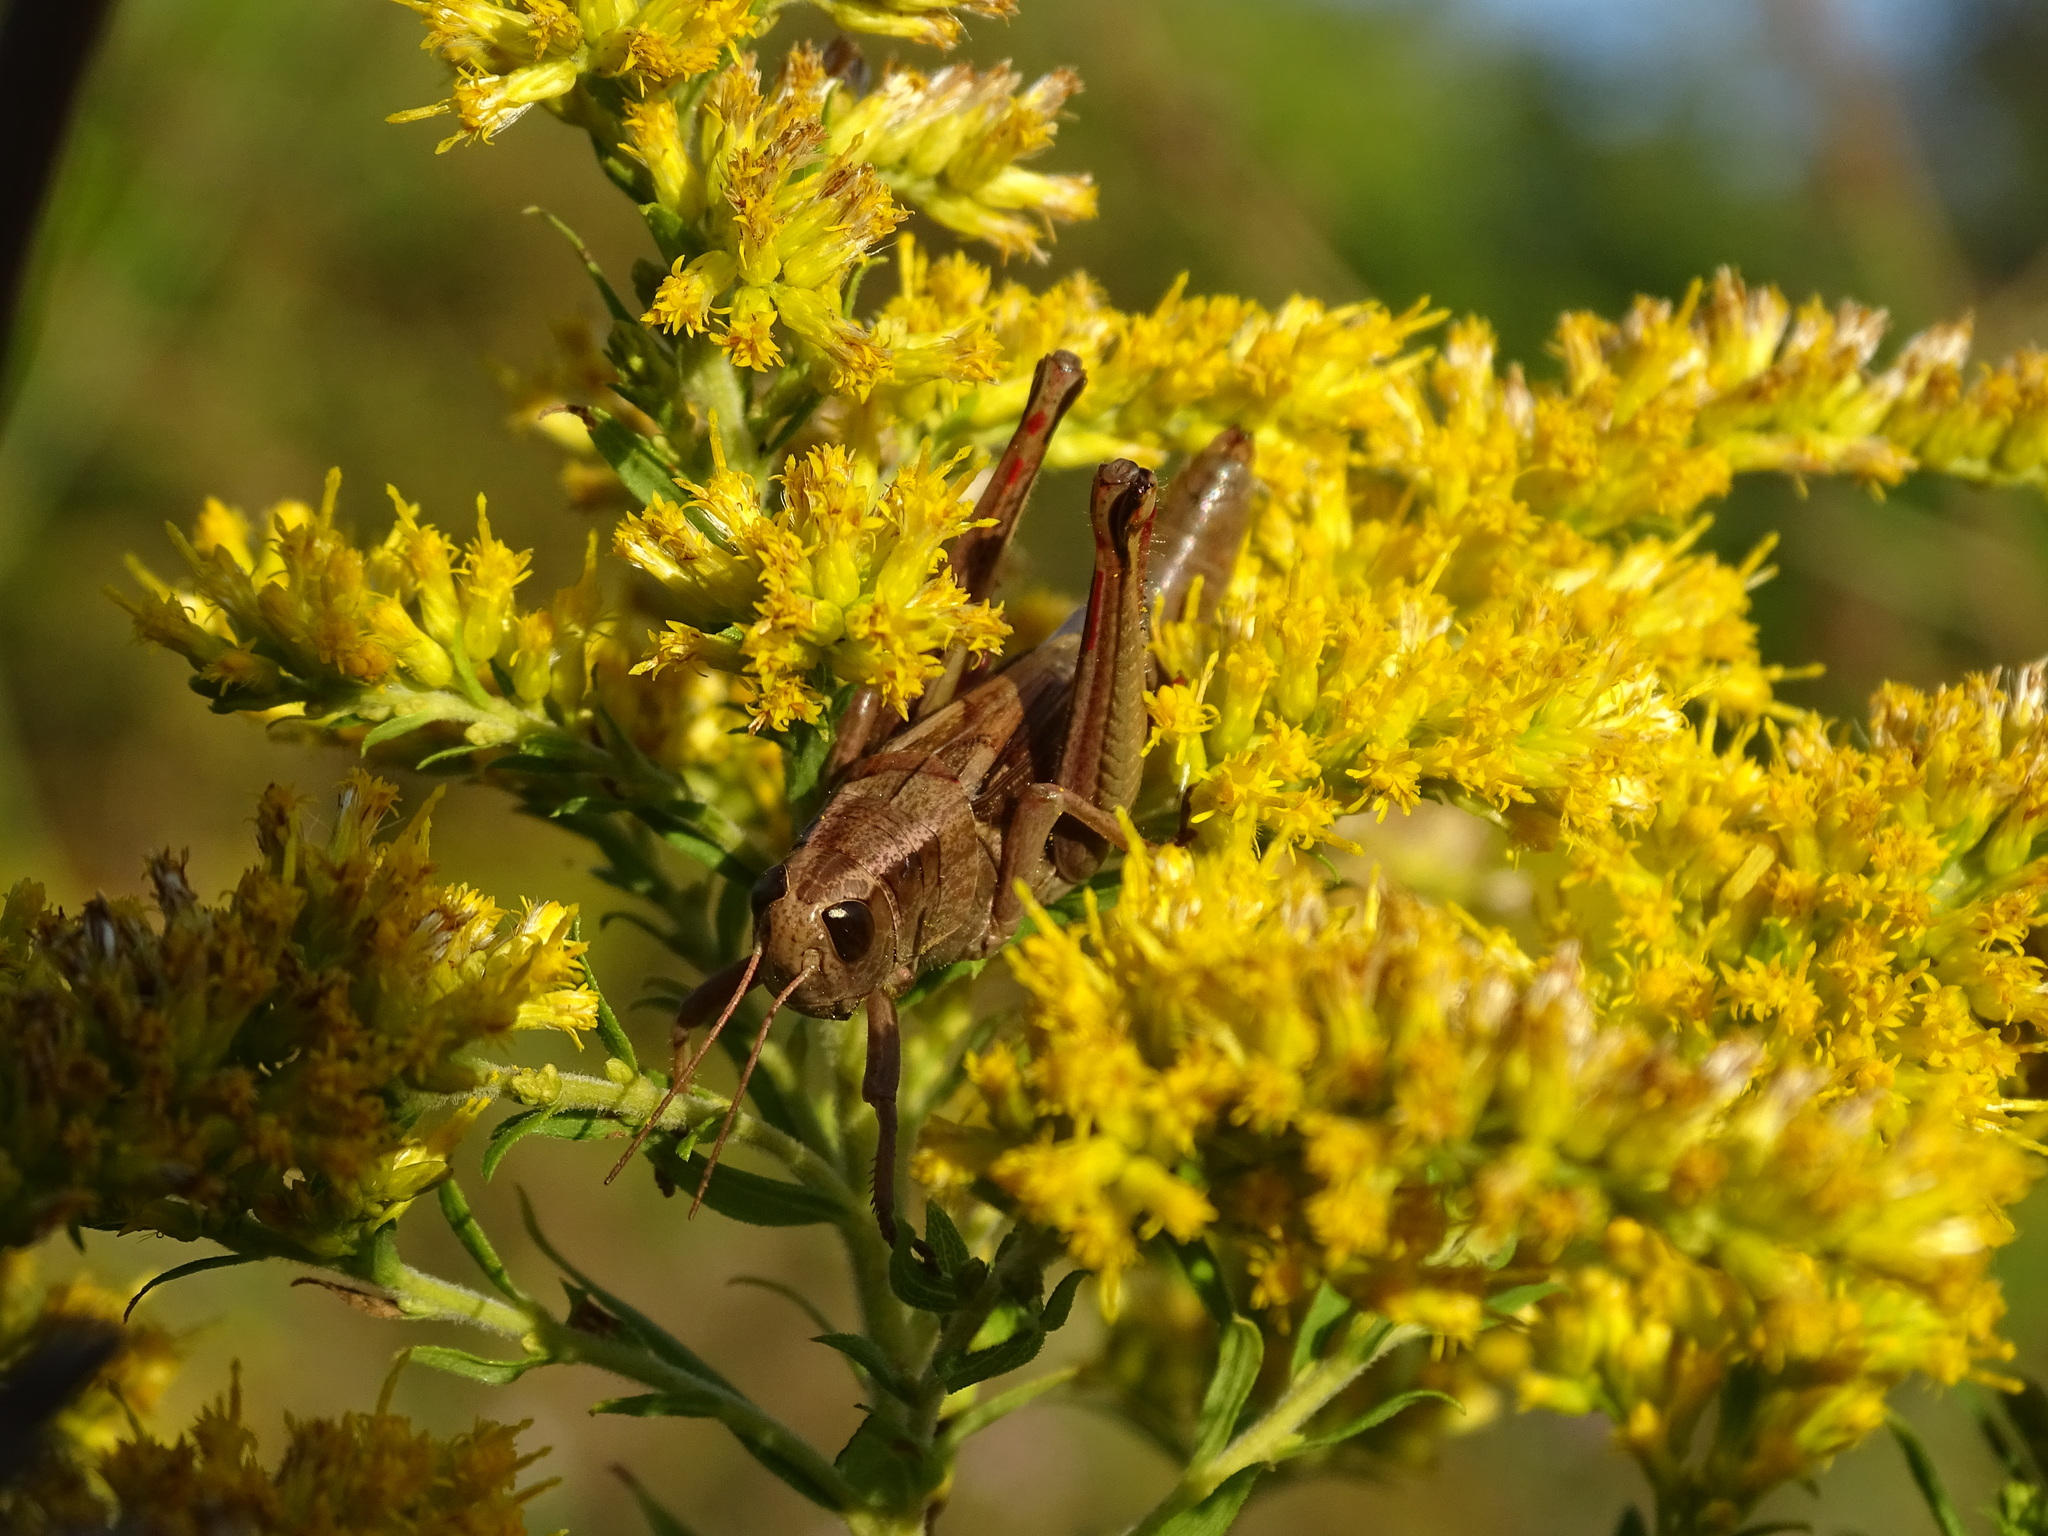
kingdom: Animalia
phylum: Arthropoda
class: Insecta
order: Orthoptera
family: Acrididae
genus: Melanoplus
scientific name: Melanoplus bivittatus
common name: Two-striped grasshopper
